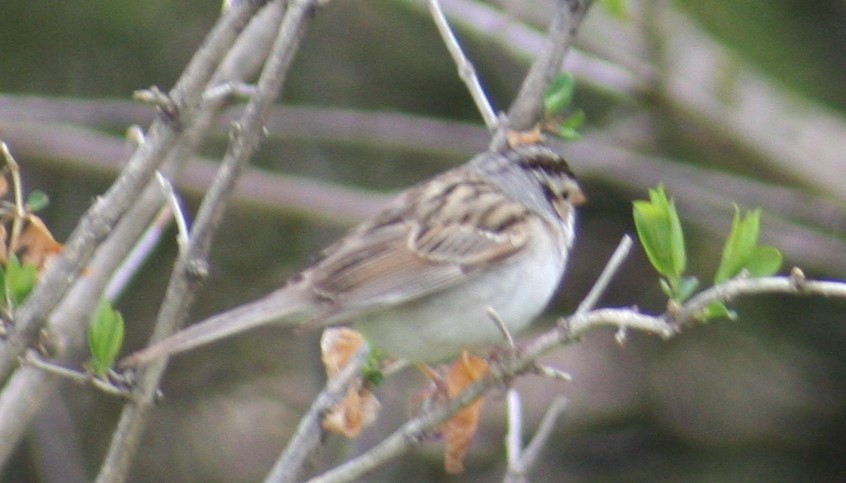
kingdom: Animalia
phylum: Chordata
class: Aves
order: Passeriformes
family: Passerellidae
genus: Spizella
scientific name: Spizella pallida
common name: Clay-colored sparrow
